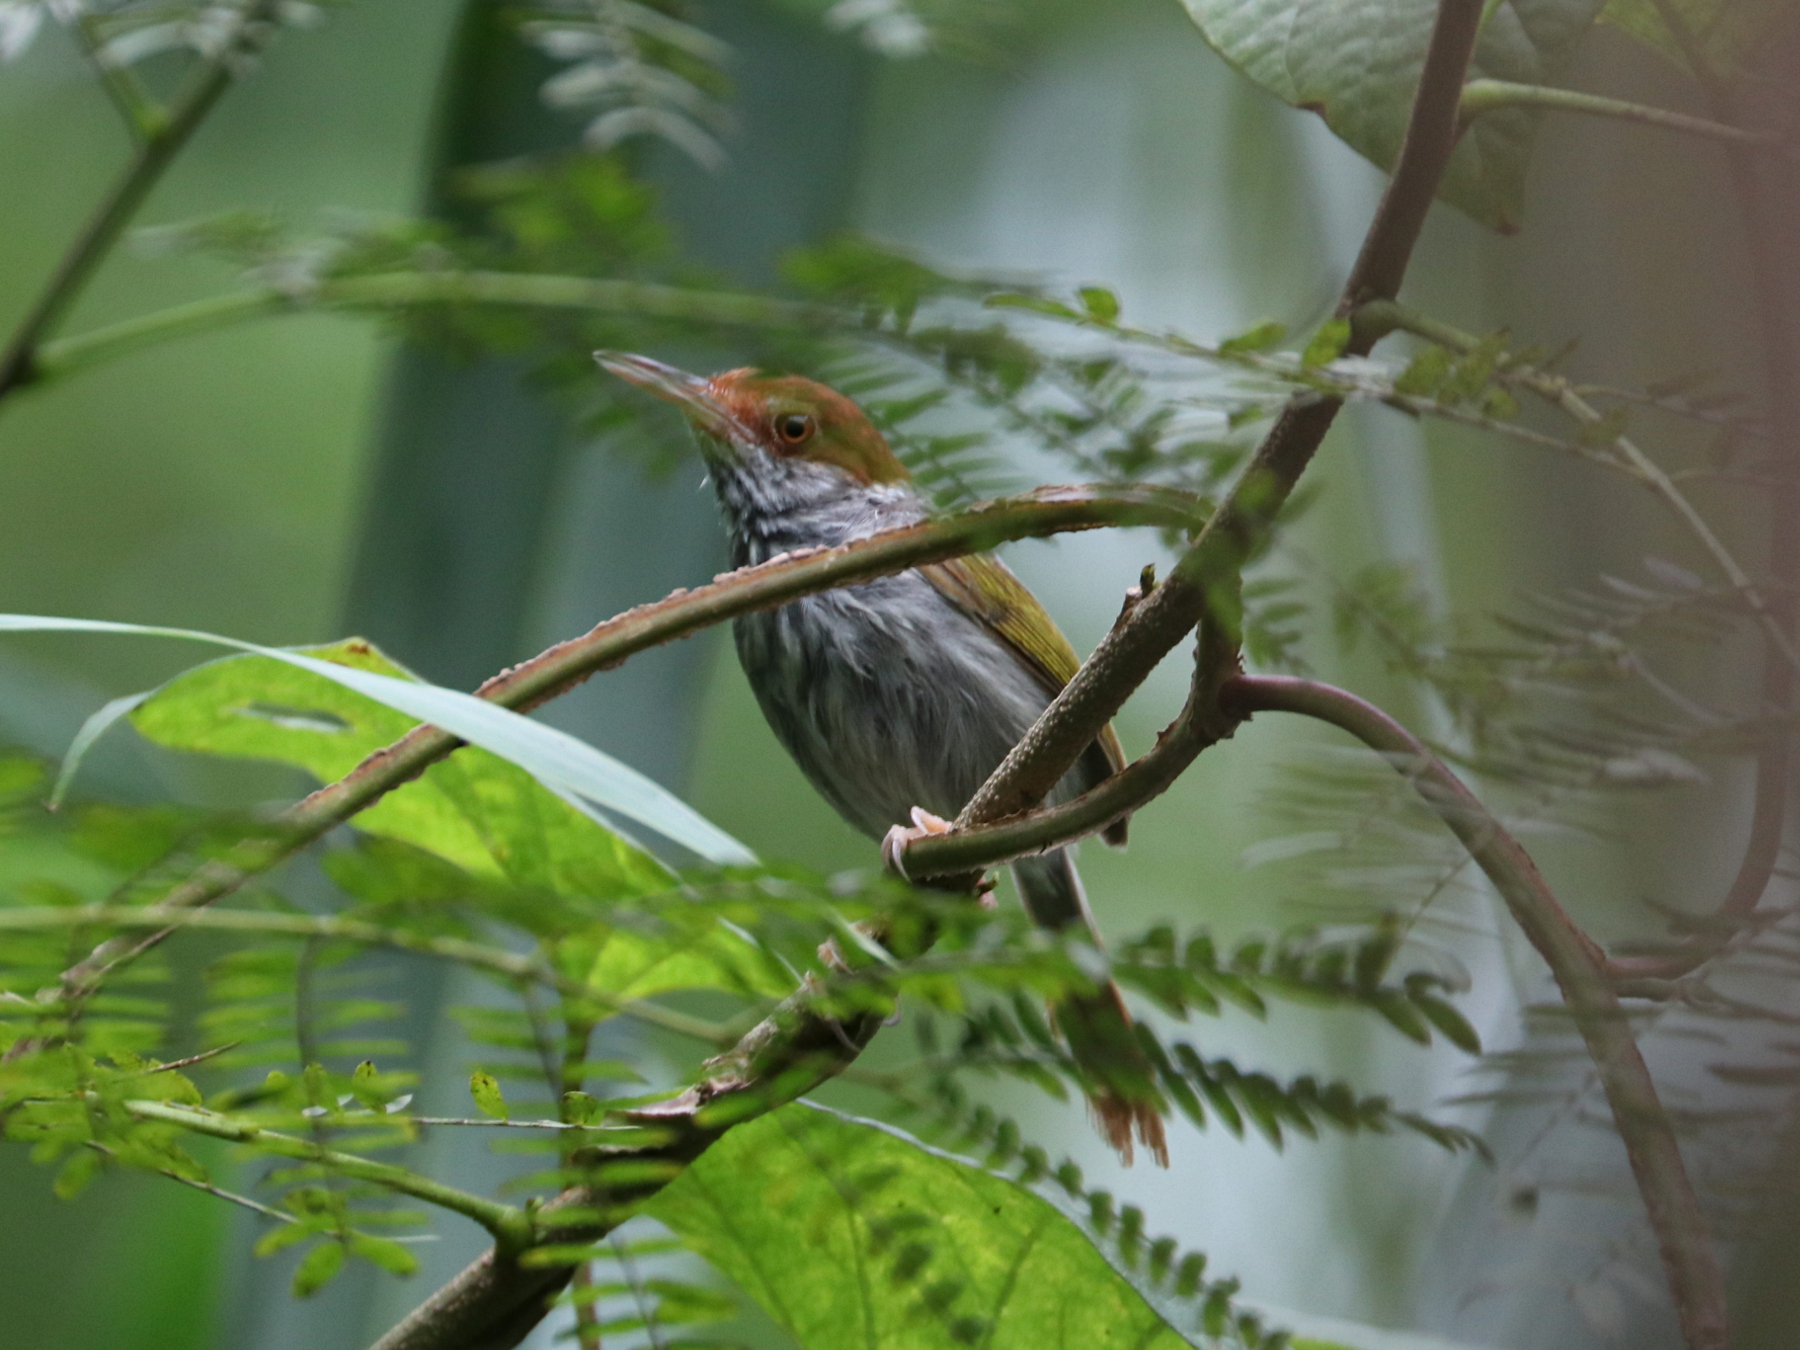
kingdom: Animalia
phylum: Chordata
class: Aves
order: Passeriformes
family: Cisticolidae
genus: Orthotomus
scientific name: Orthotomus derbianus
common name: Grey-backed tailorbird
